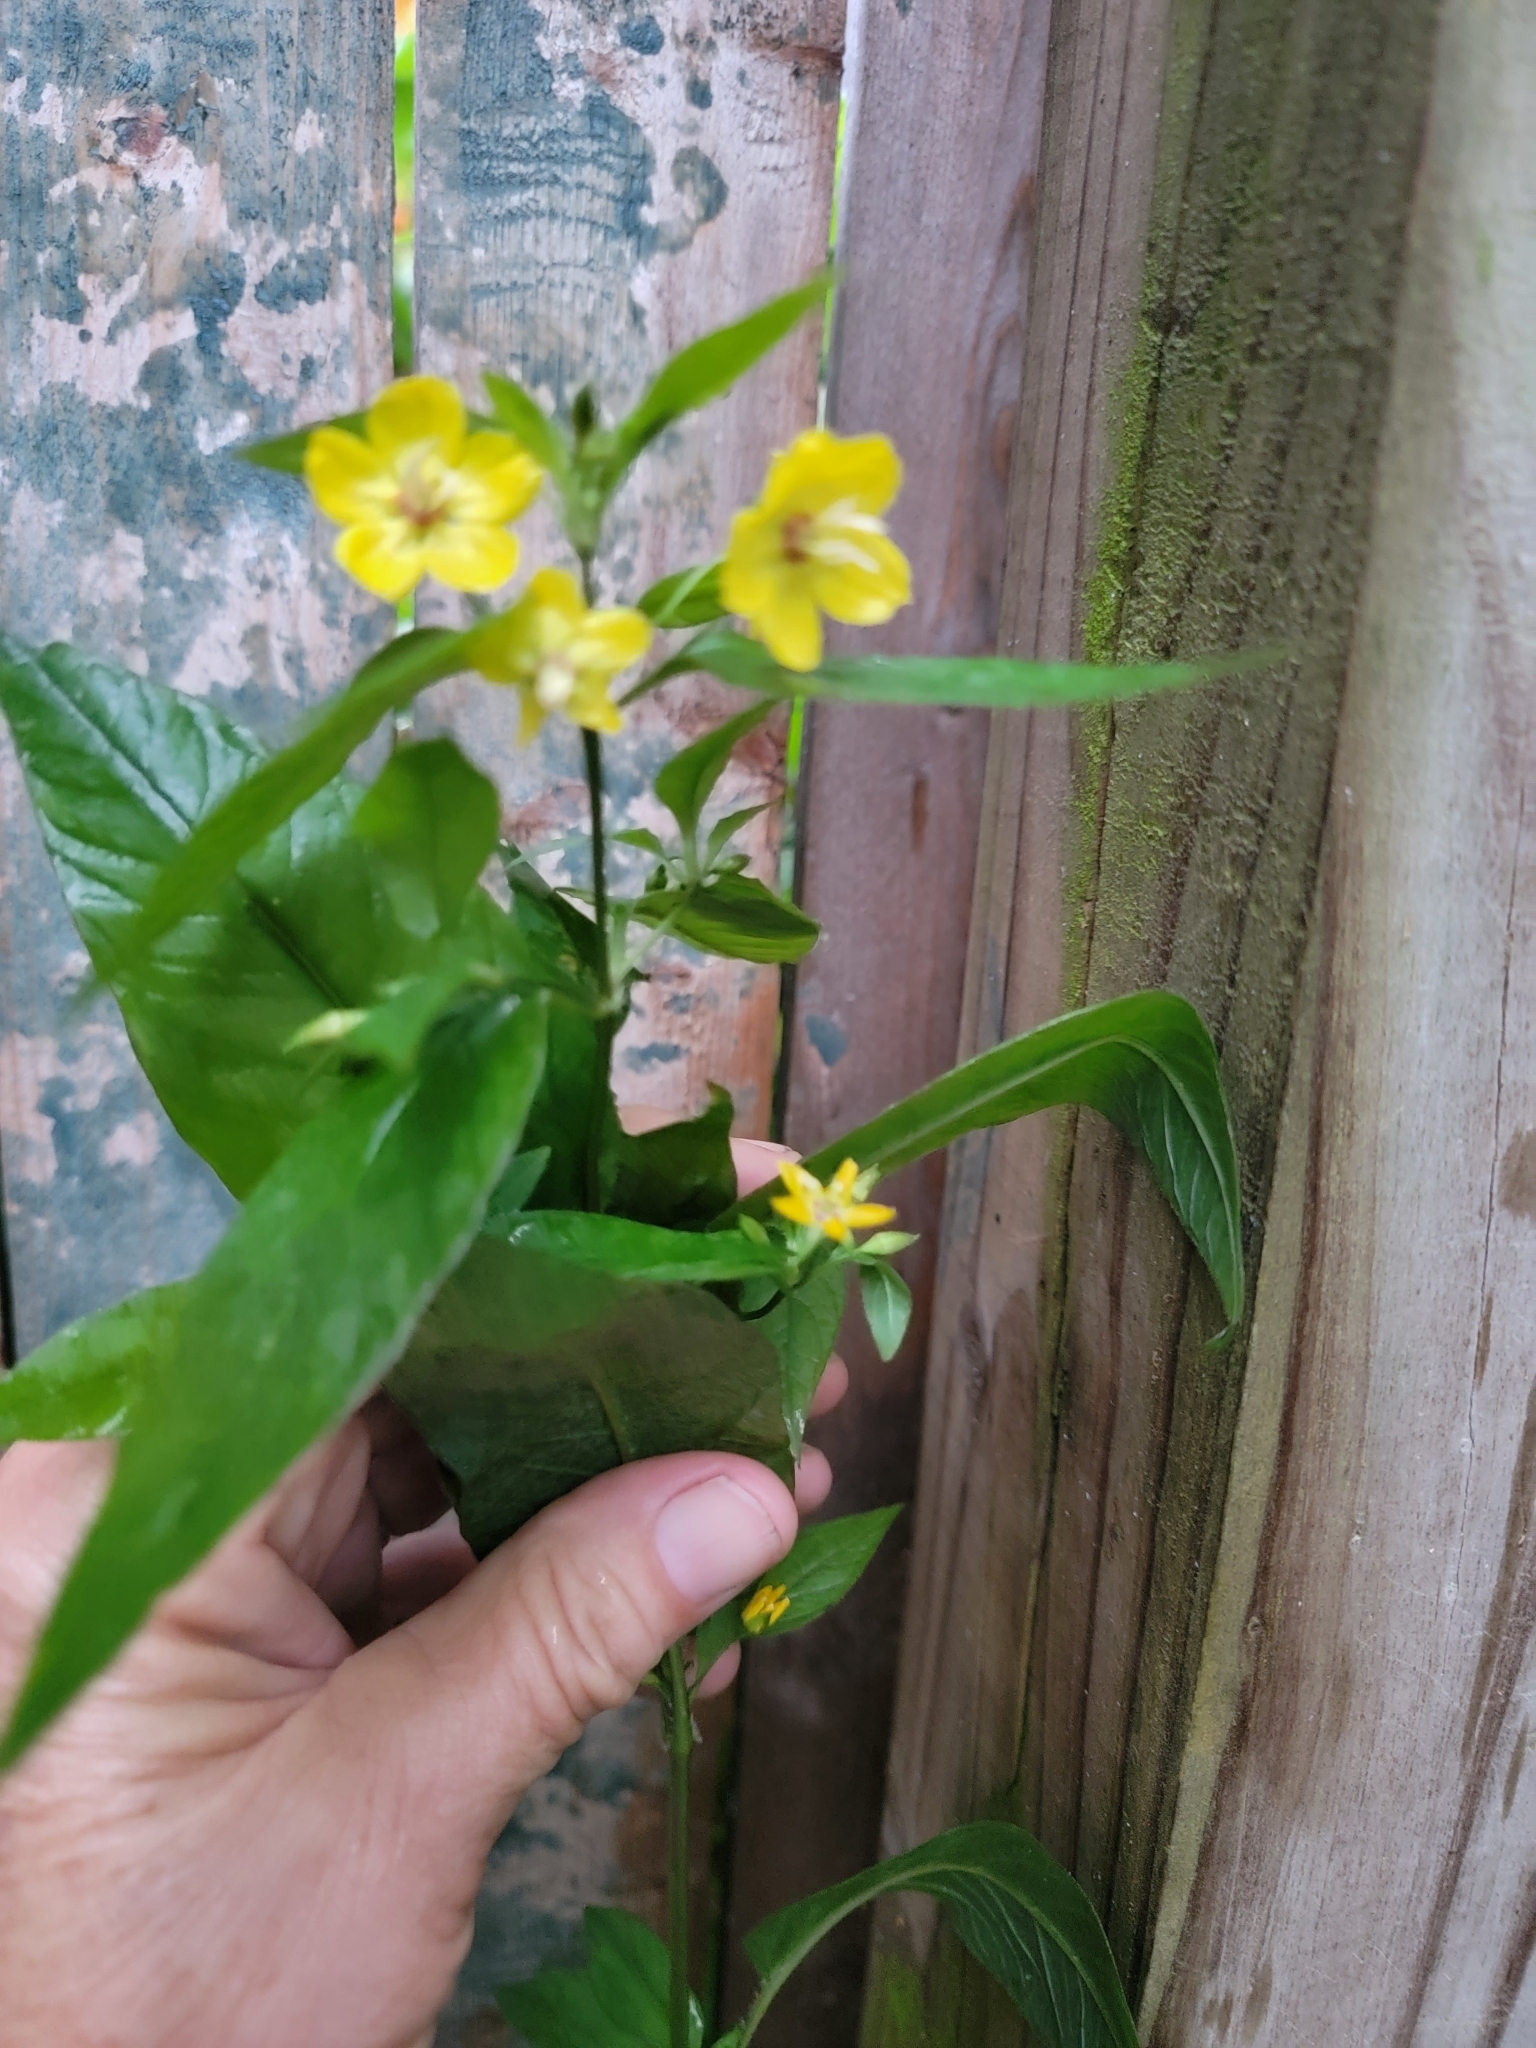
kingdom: Plantae
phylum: Tracheophyta
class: Magnoliopsida
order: Ericales
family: Primulaceae
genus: Lysimachia
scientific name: Lysimachia ciliata
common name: Fringed loosestrife
